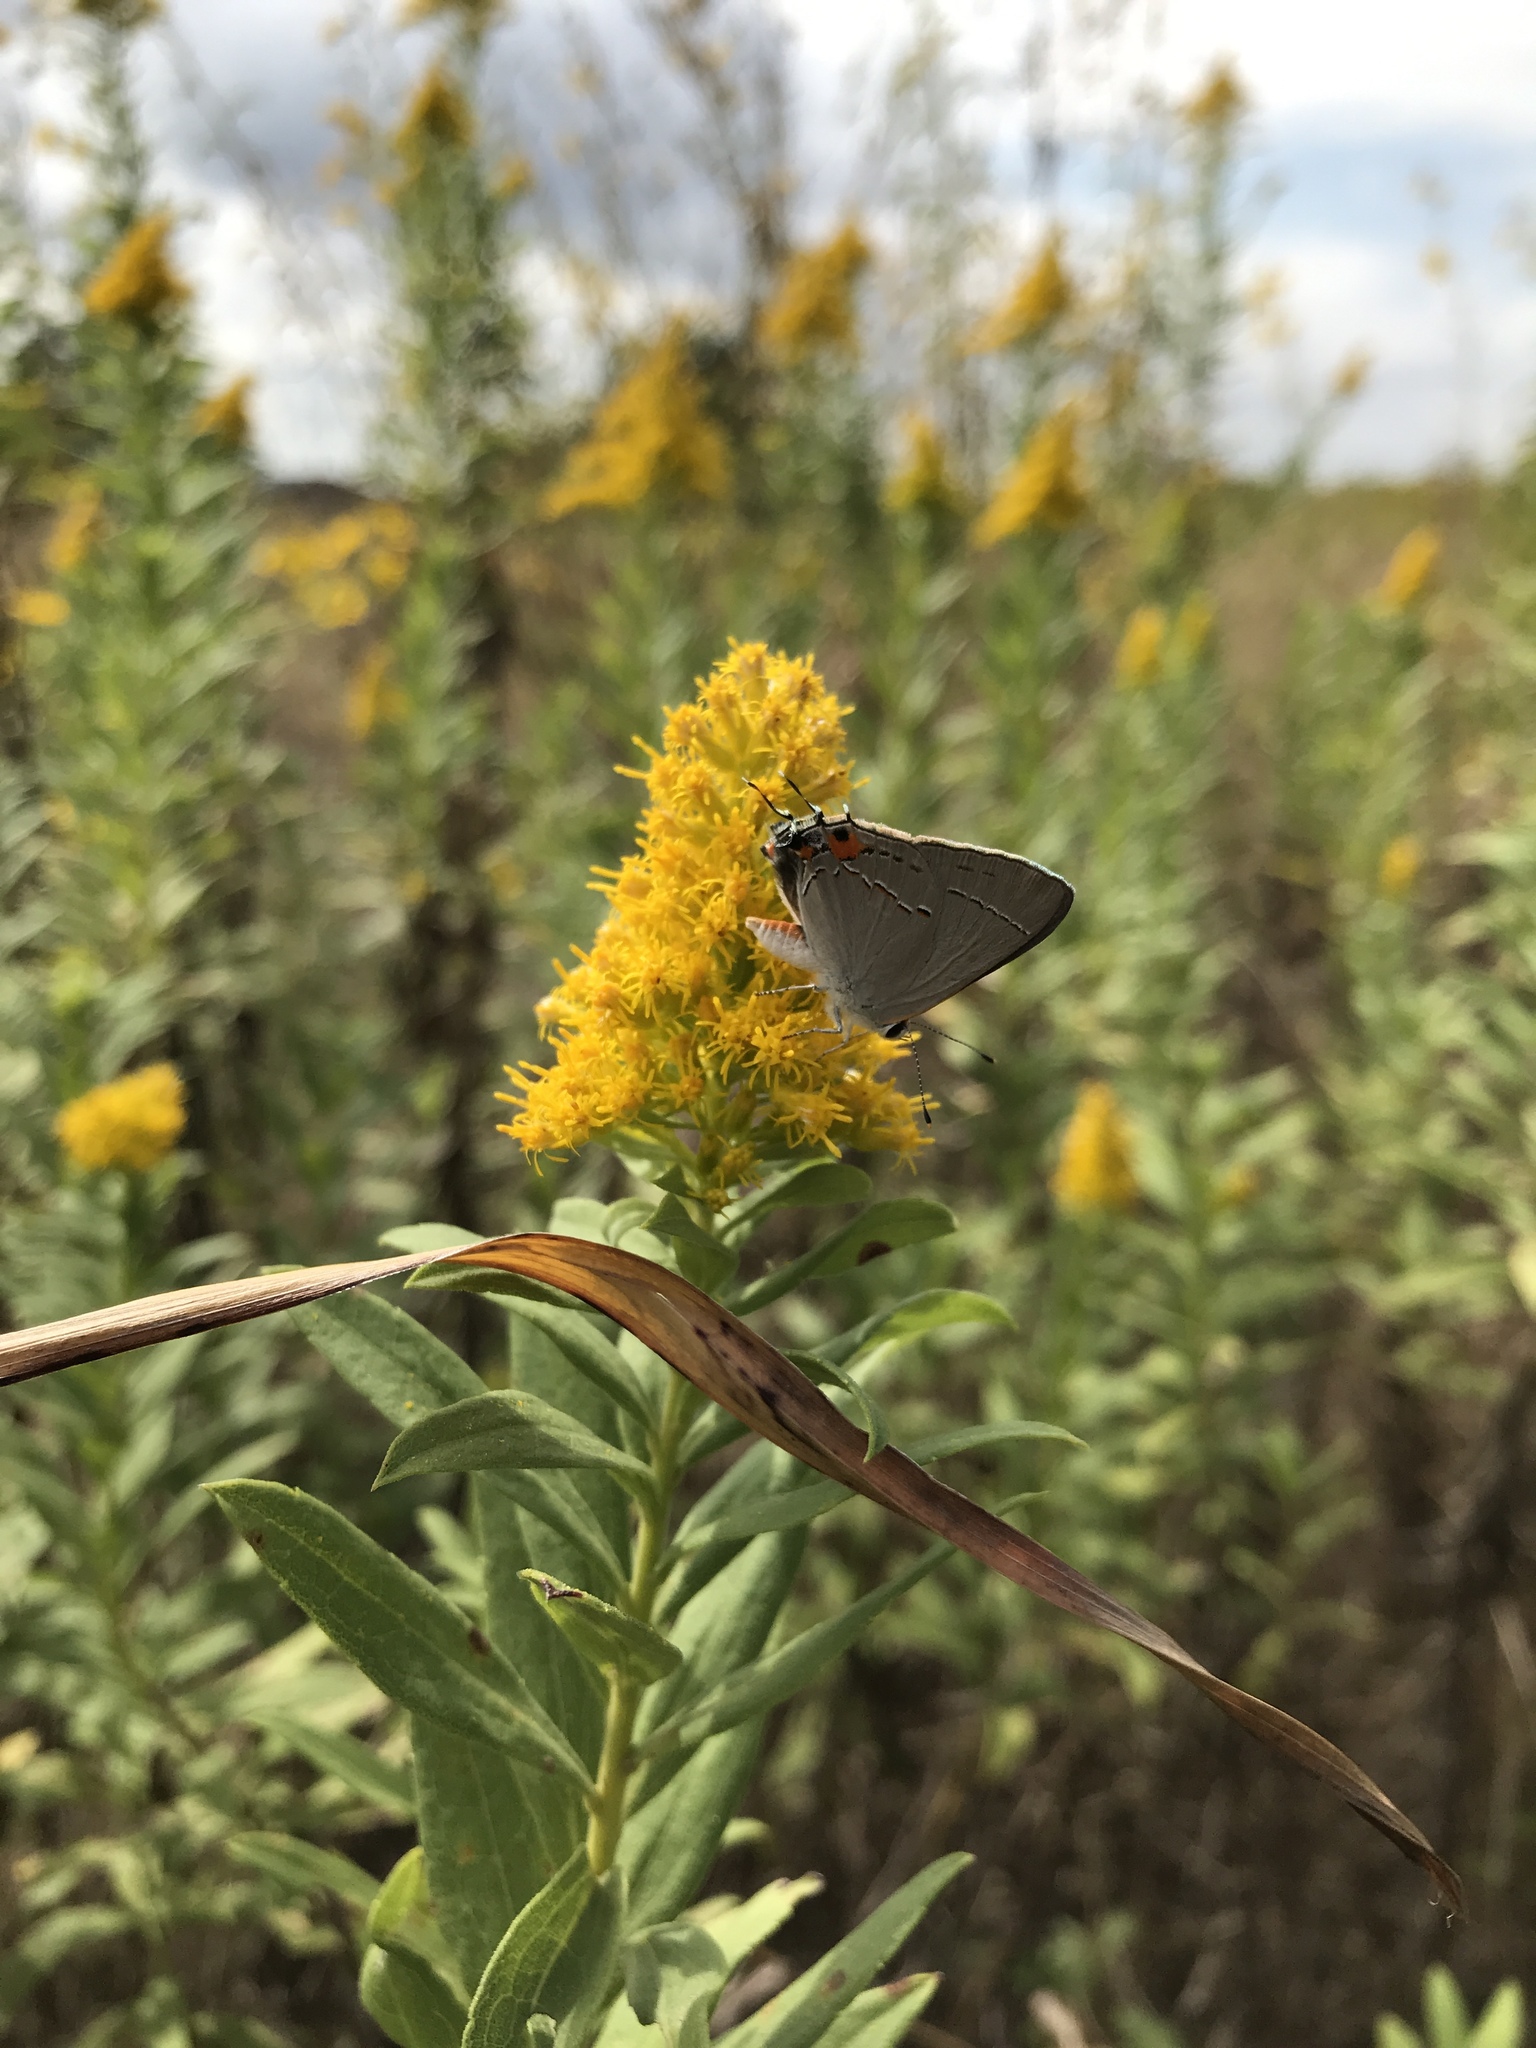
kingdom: Animalia
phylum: Arthropoda
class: Insecta
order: Lepidoptera
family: Lycaenidae
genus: Strymon
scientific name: Strymon melinus
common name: Gray hairstreak
